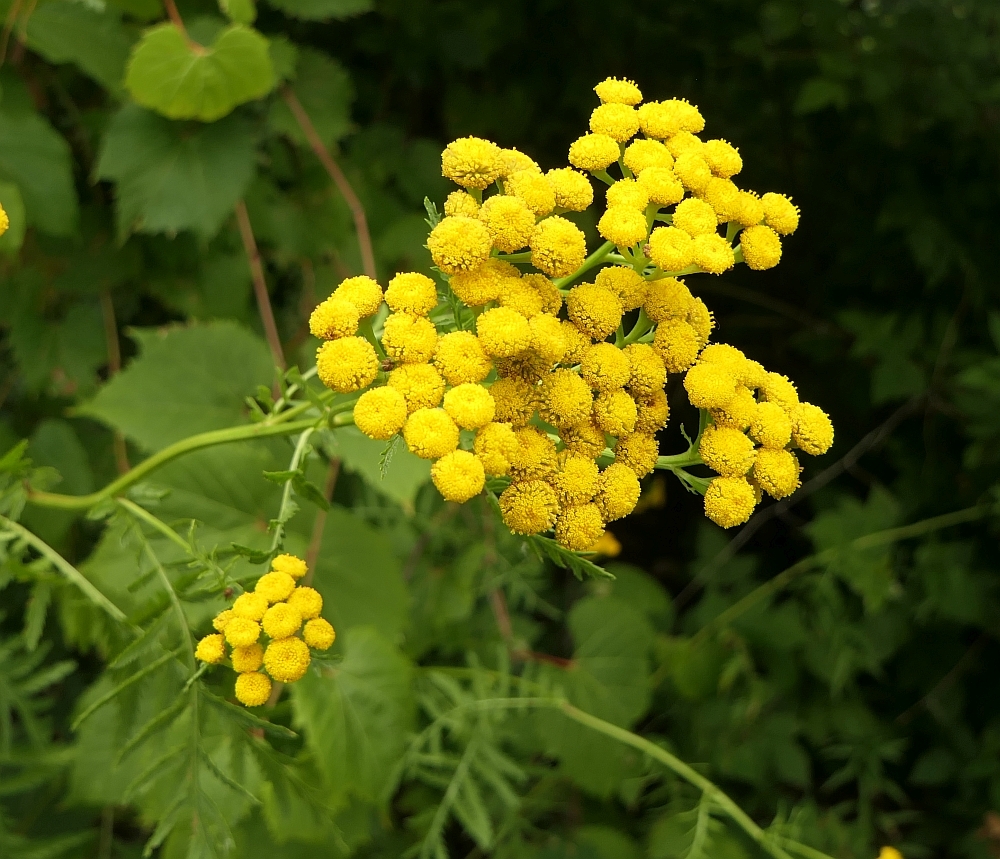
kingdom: Plantae
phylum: Tracheophyta
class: Magnoliopsida
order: Asterales
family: Asteraceae
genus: Tanacetum
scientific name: Tanacetum vulgare
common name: Common tansy
